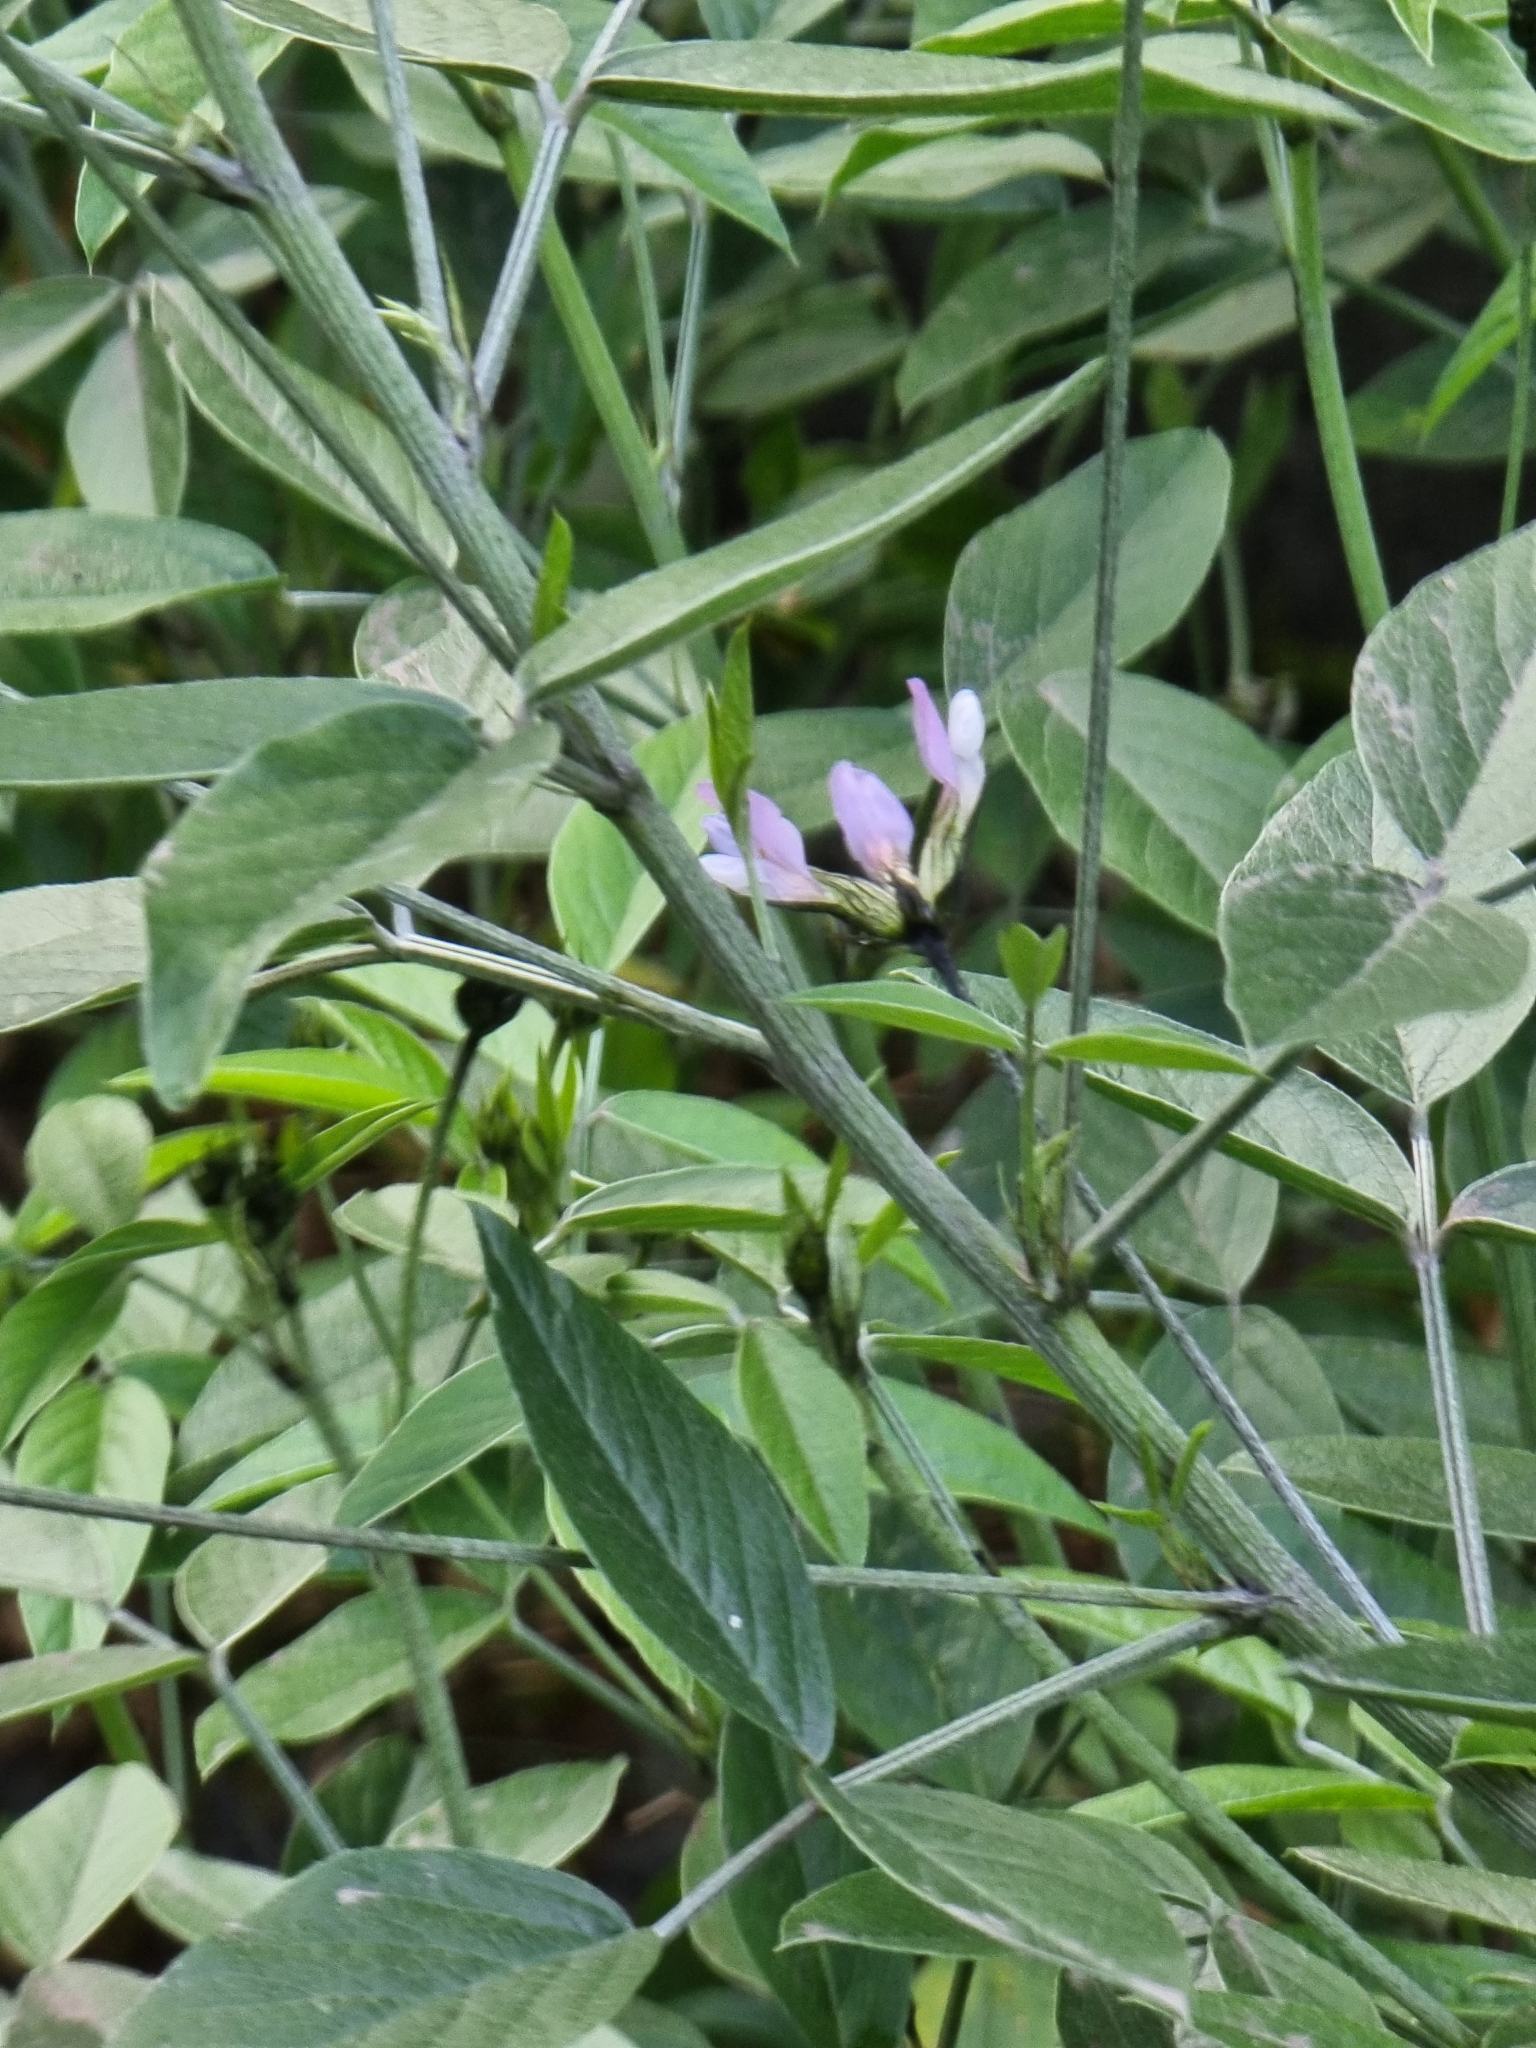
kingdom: Plantae
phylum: Tracheophyta
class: Magnoliopsida
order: Fabales
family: Fabaceae
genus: Bituminaria
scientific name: Bituminaria bituminosa
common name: Arabian pea
